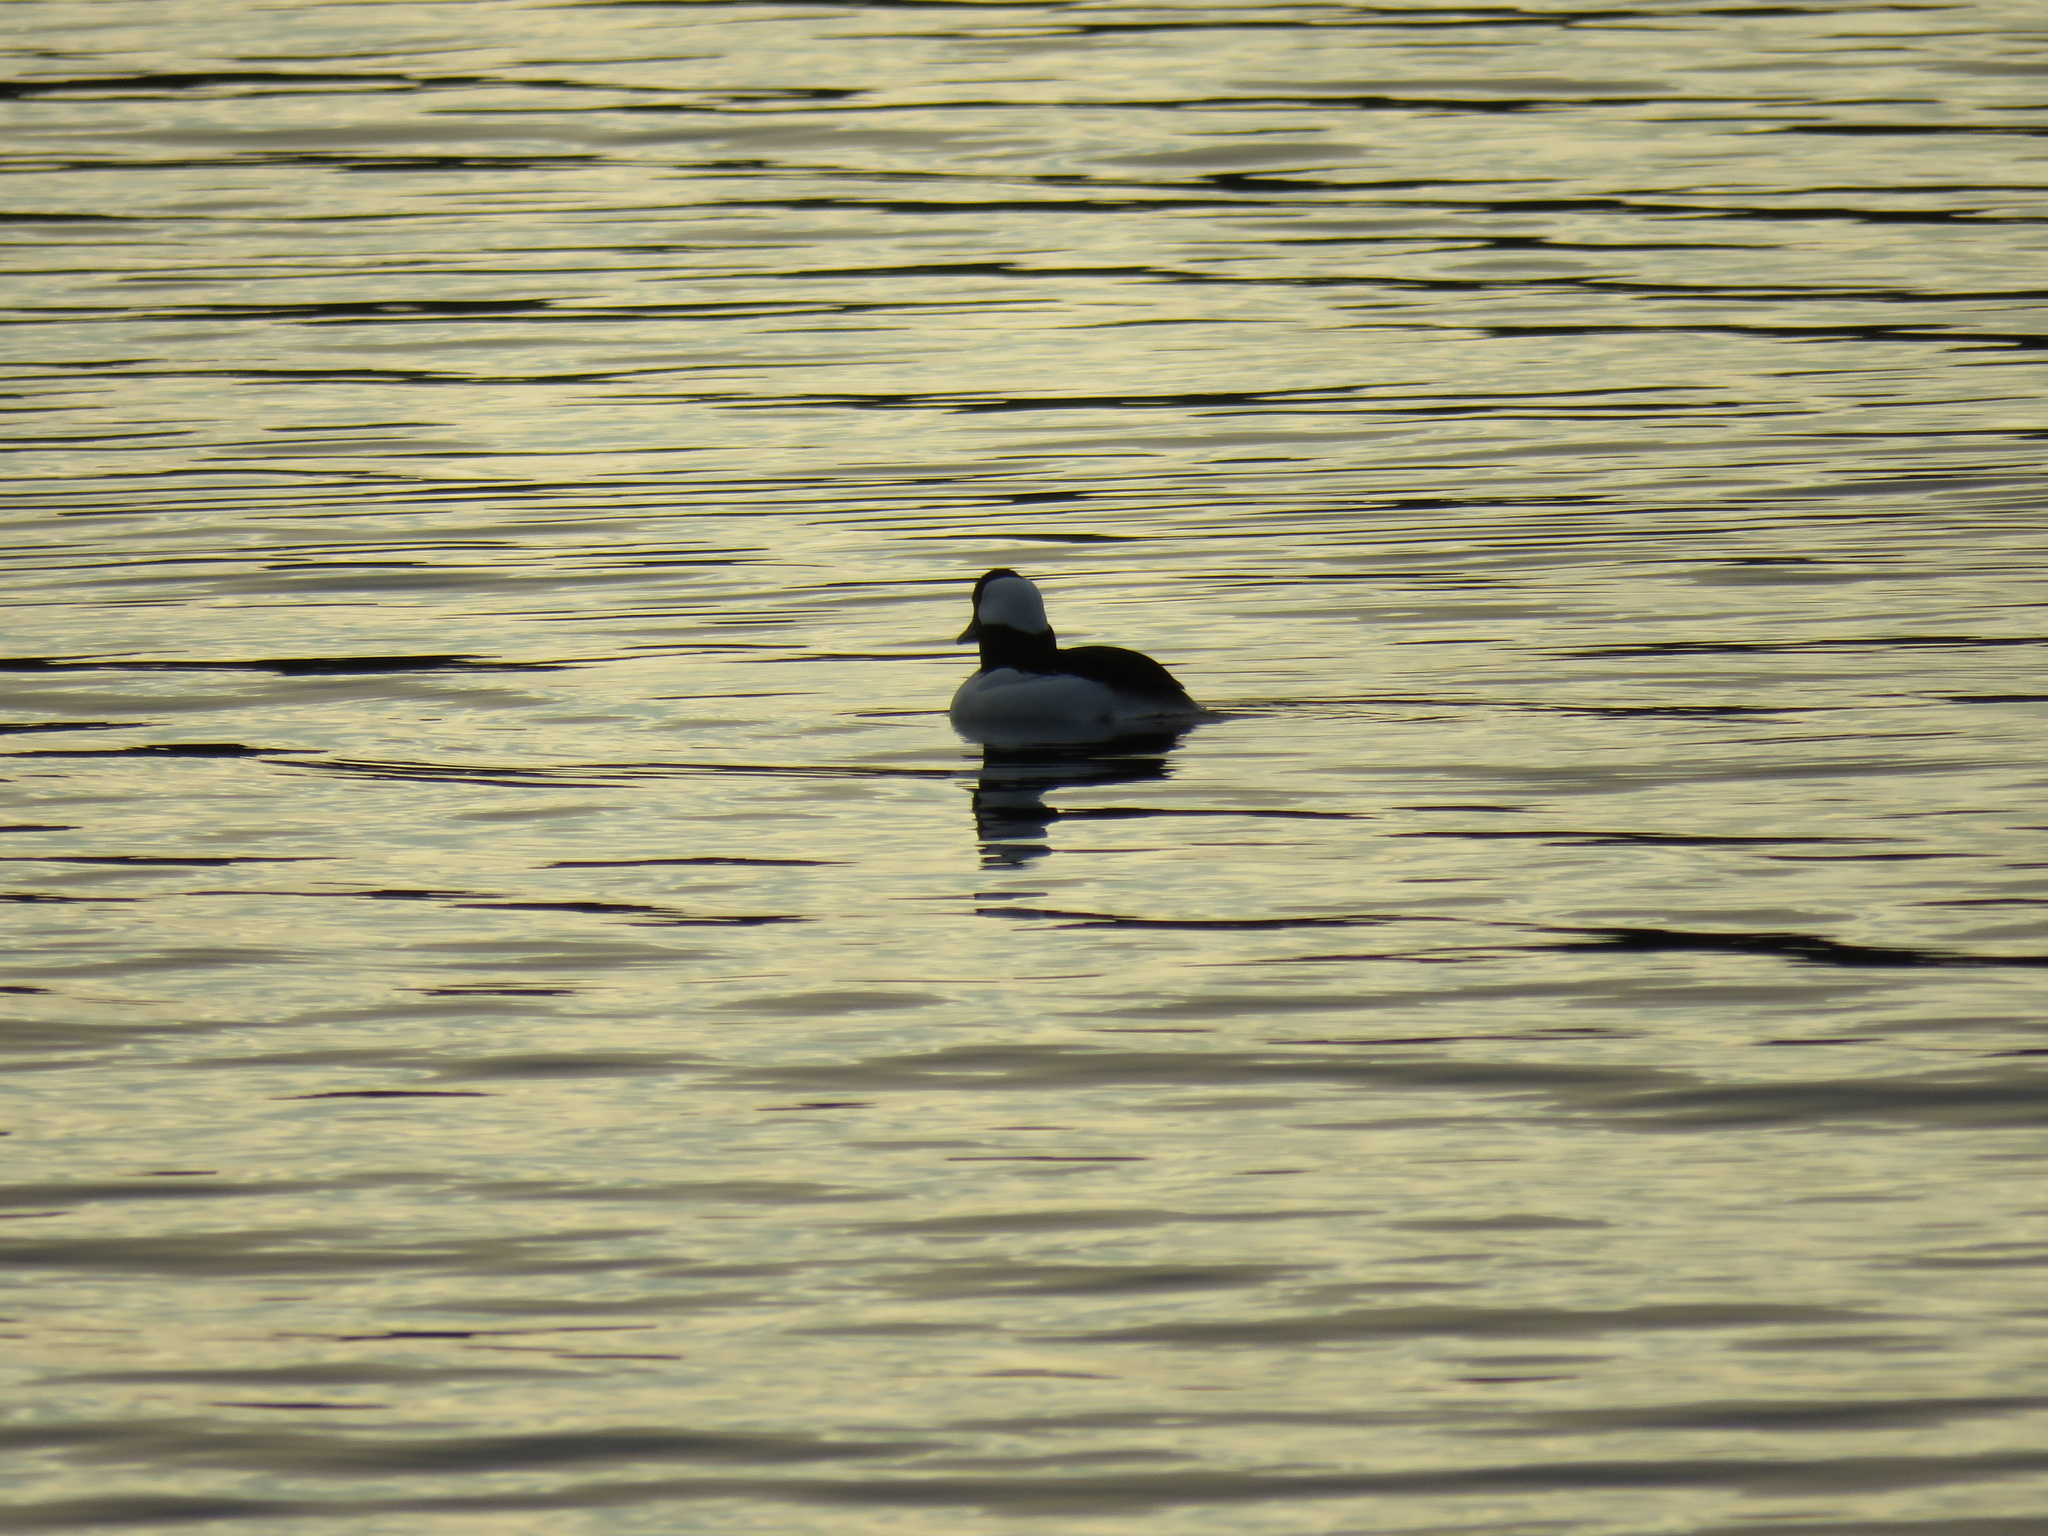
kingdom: Animalia
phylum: Chordata
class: Aves
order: Anseriformes
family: Anatidae
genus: Bucephala
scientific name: Bucephala albeola
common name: Bufflehead
